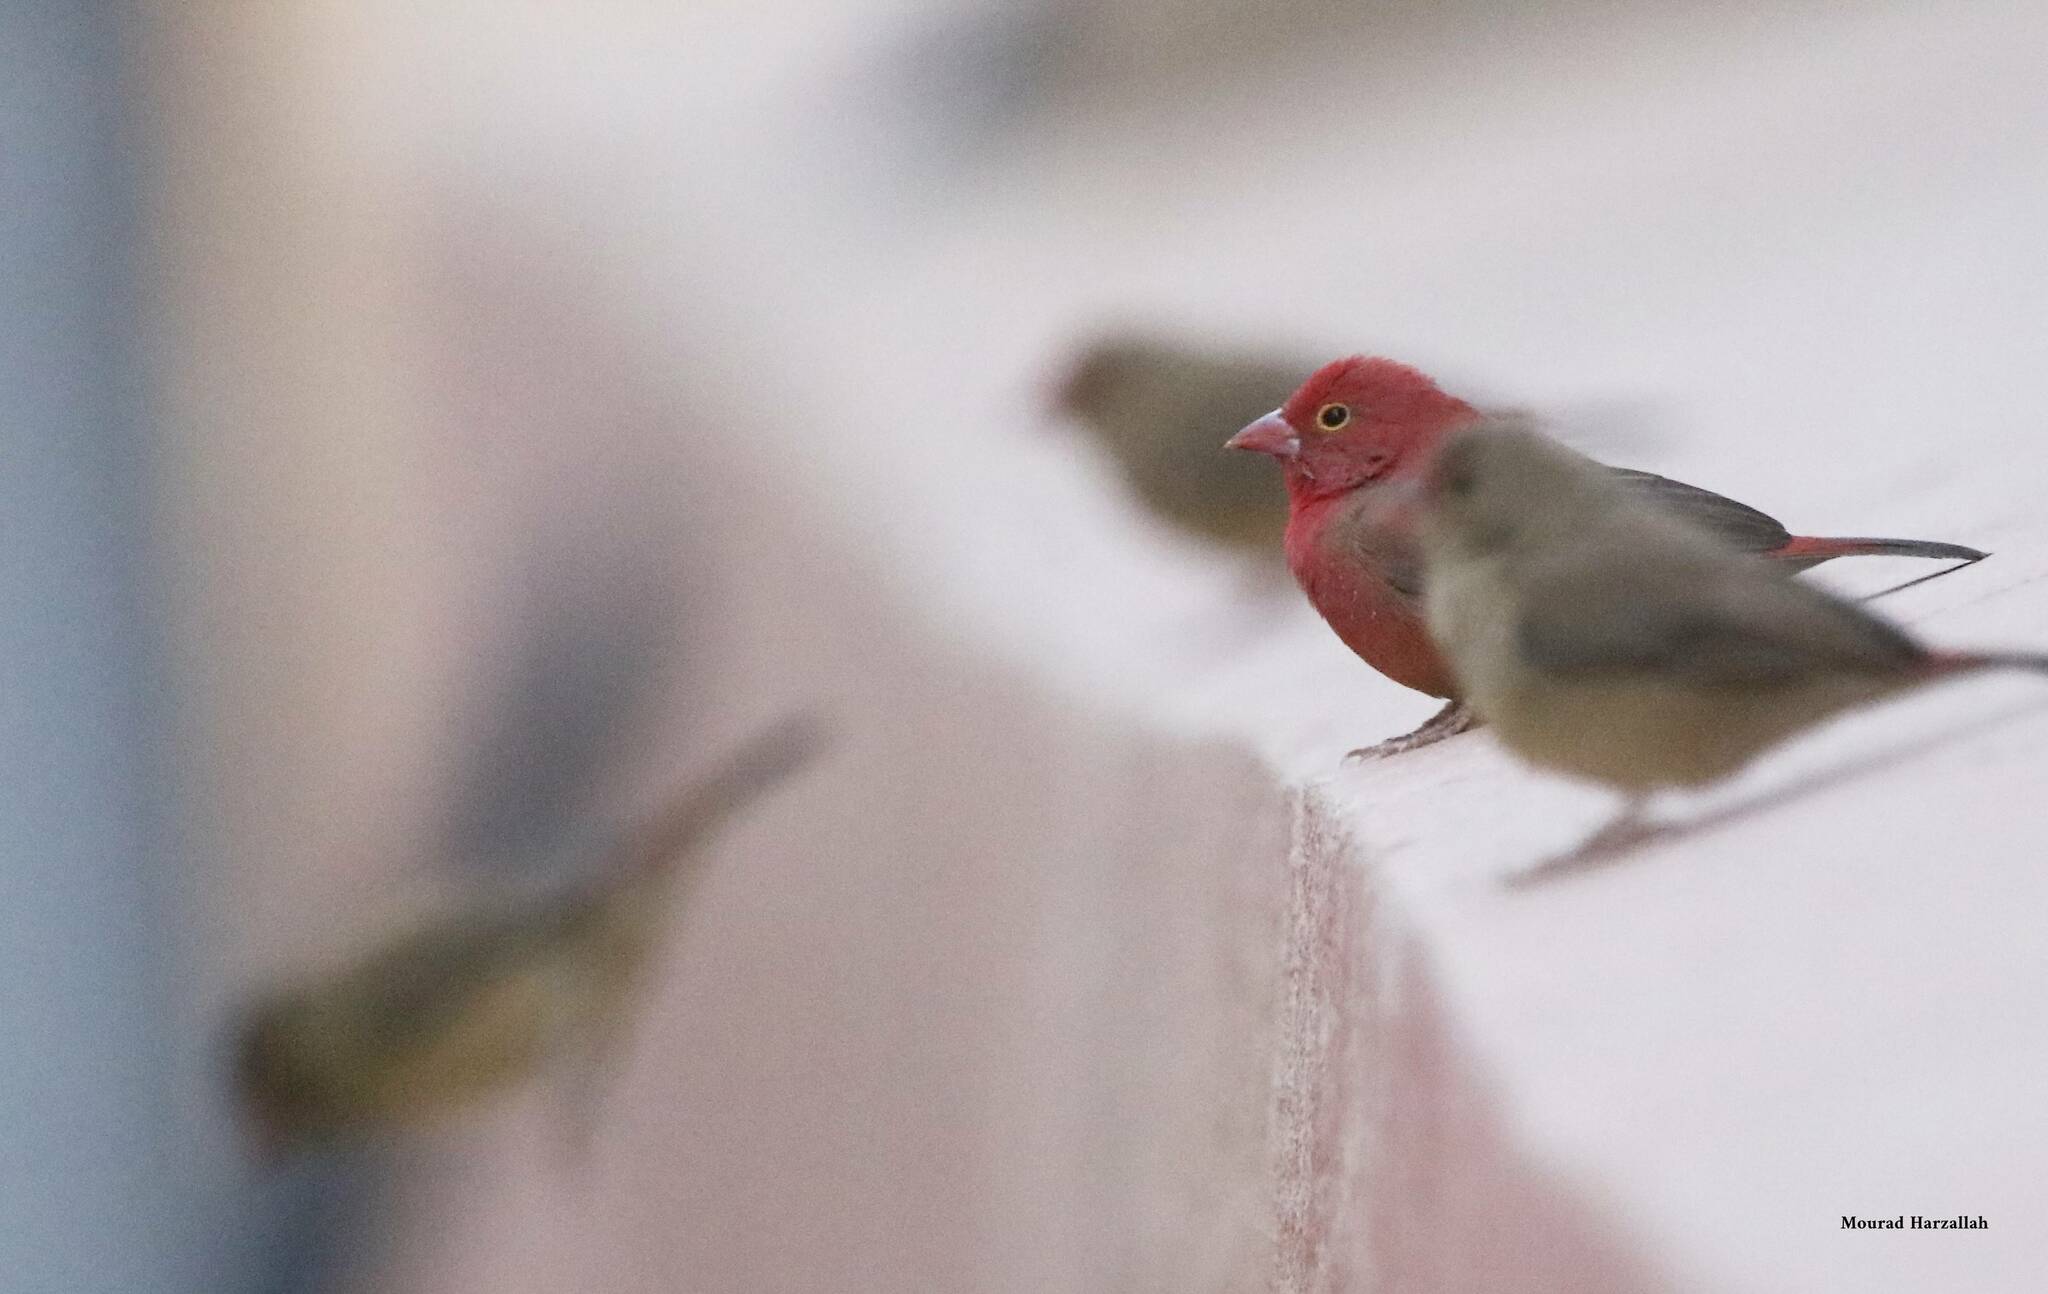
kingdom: Animalia
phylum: Chordata
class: Aves
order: Passeriformes
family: Estrildidae
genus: Lagonosticta
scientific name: Lagonosticta senegala
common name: Red-billed firefinch
